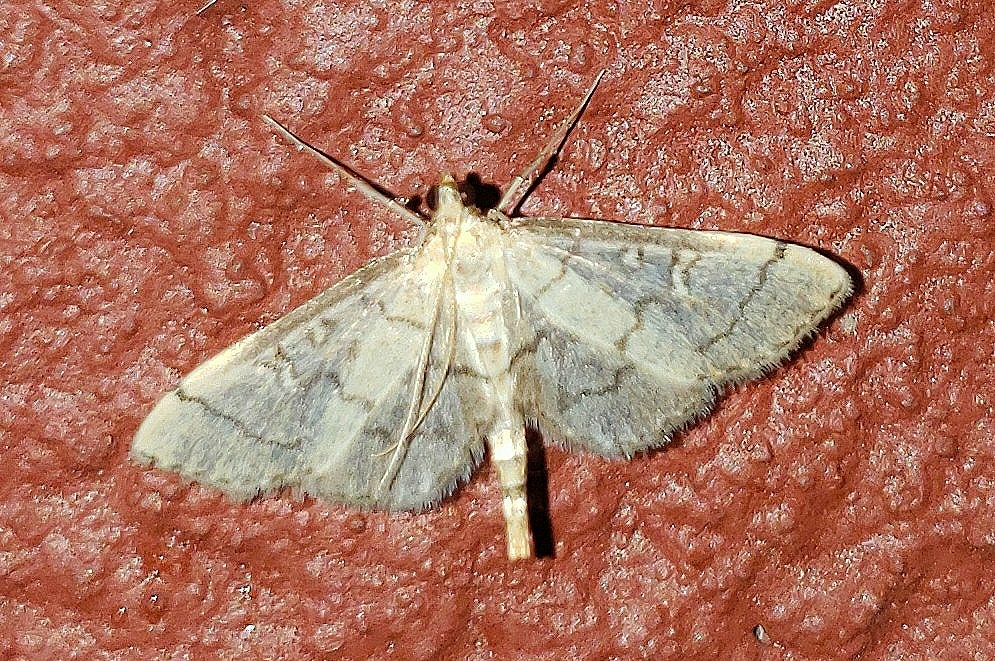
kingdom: Animalia
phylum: Arthropoda
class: Insecta
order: Lepidoptera
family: Crambidae
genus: Lamprosema
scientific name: Lamprosema Blepharomastix ranalis
